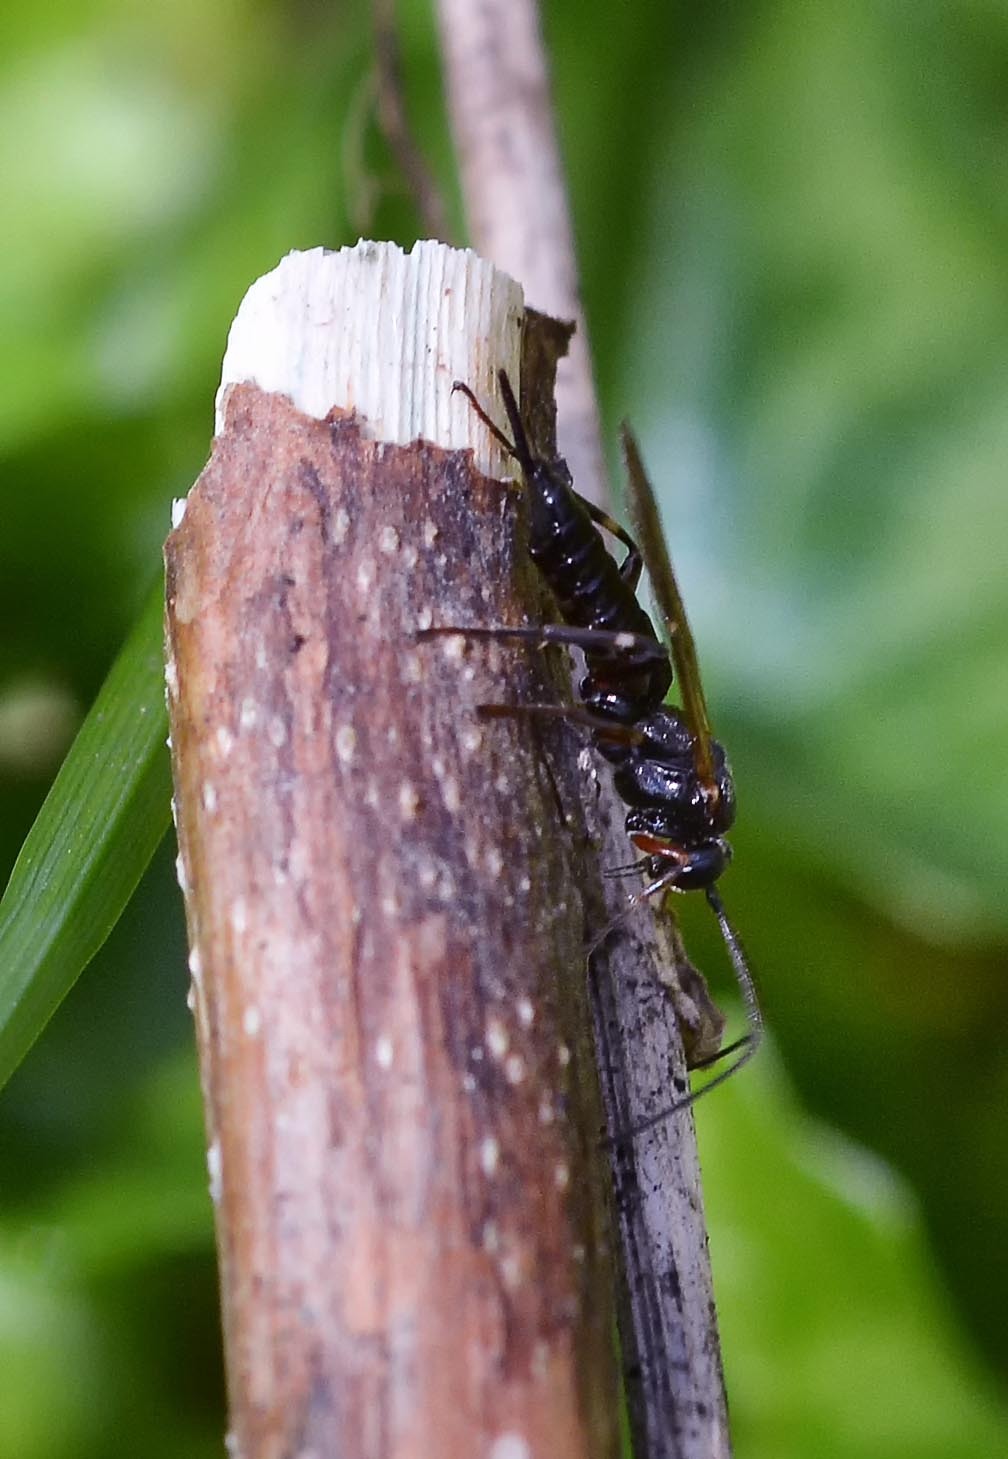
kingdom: Animalia
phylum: Arthropoda
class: Insecta
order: Hymenoptera
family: Ichneumonidae
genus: Pimpla
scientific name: Pimpla turionellae
